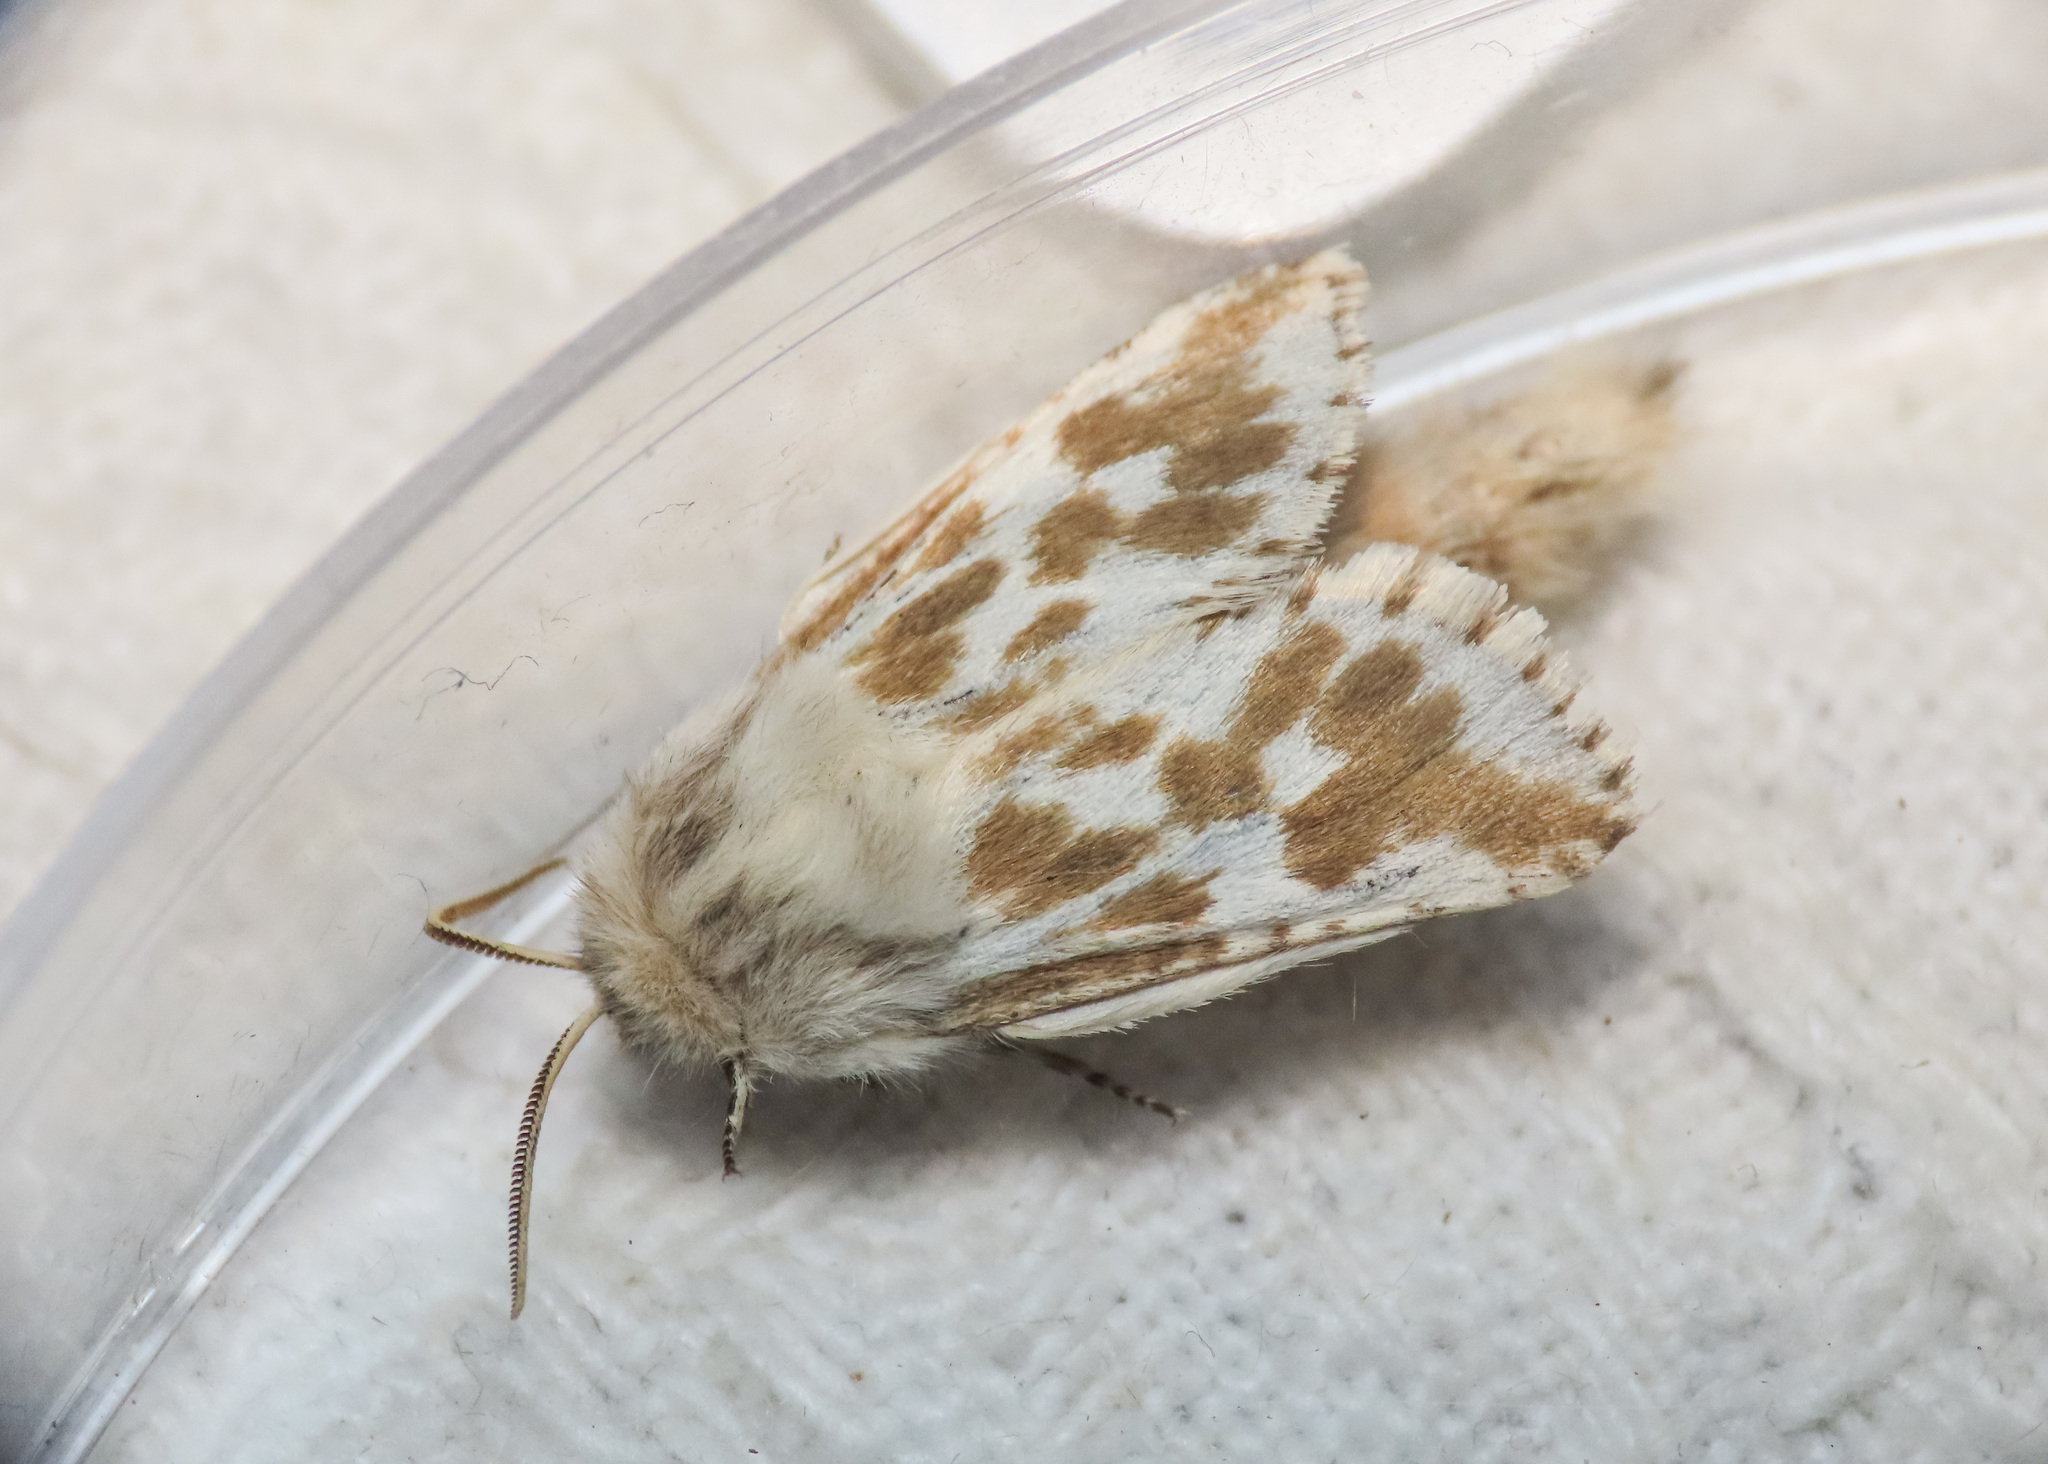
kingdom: Animalia
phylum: Arthropoda
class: Insecta
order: Lepidoptera
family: Cossidae
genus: Dyspessa
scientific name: Dyspessa ulula
